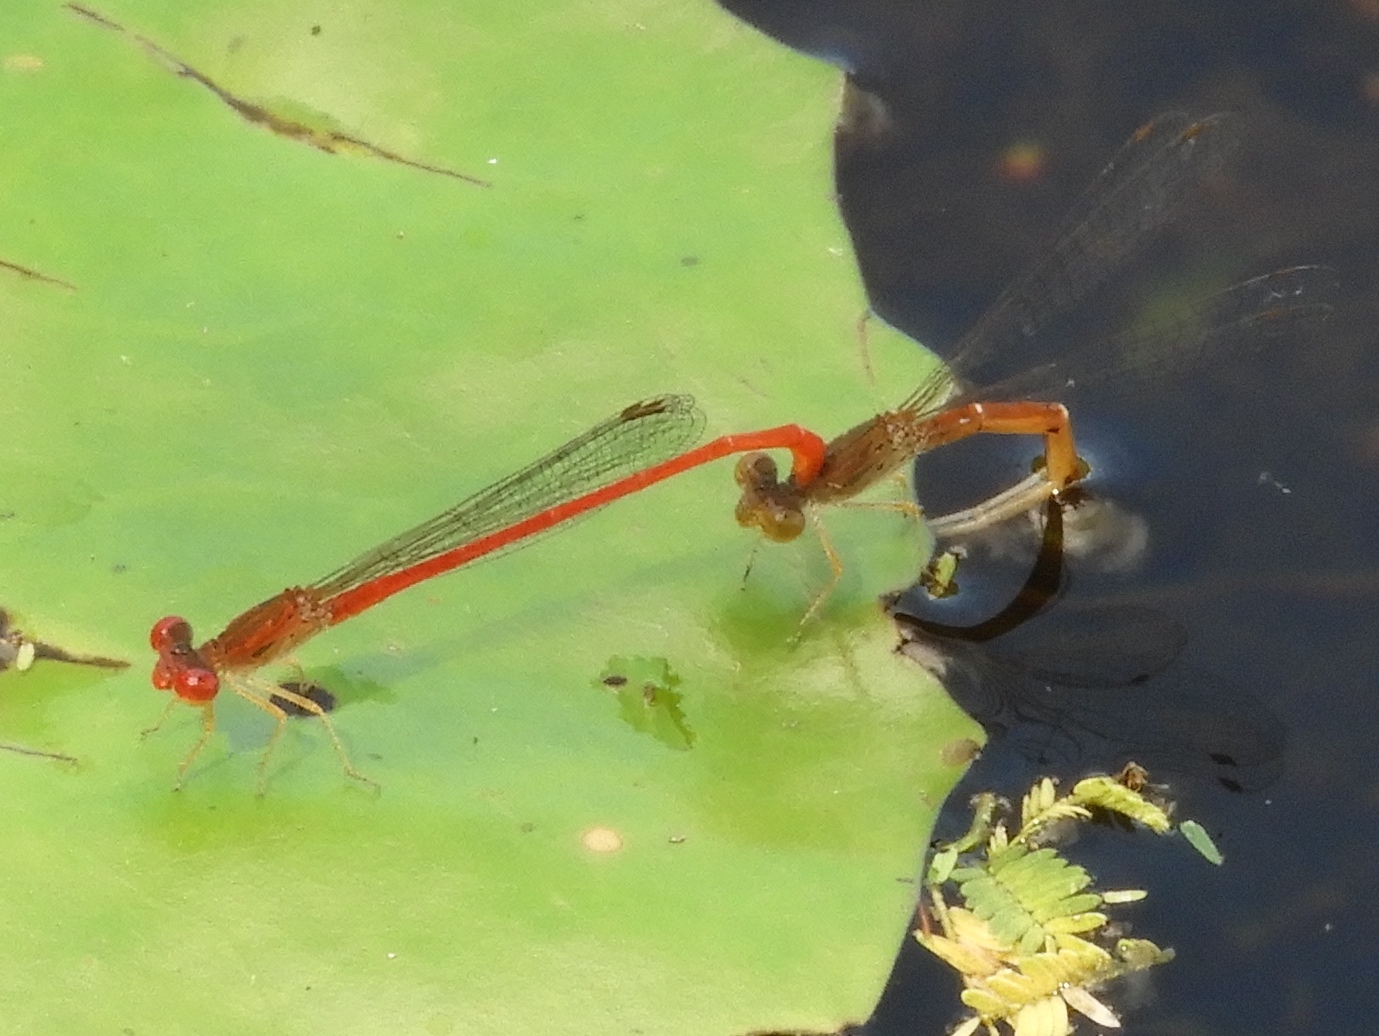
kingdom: Animalia
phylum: Arthropoda
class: Insecta
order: Odonata
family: Coenagrionidae
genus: Telebasis
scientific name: Telebasis salva
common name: Desert firetail
